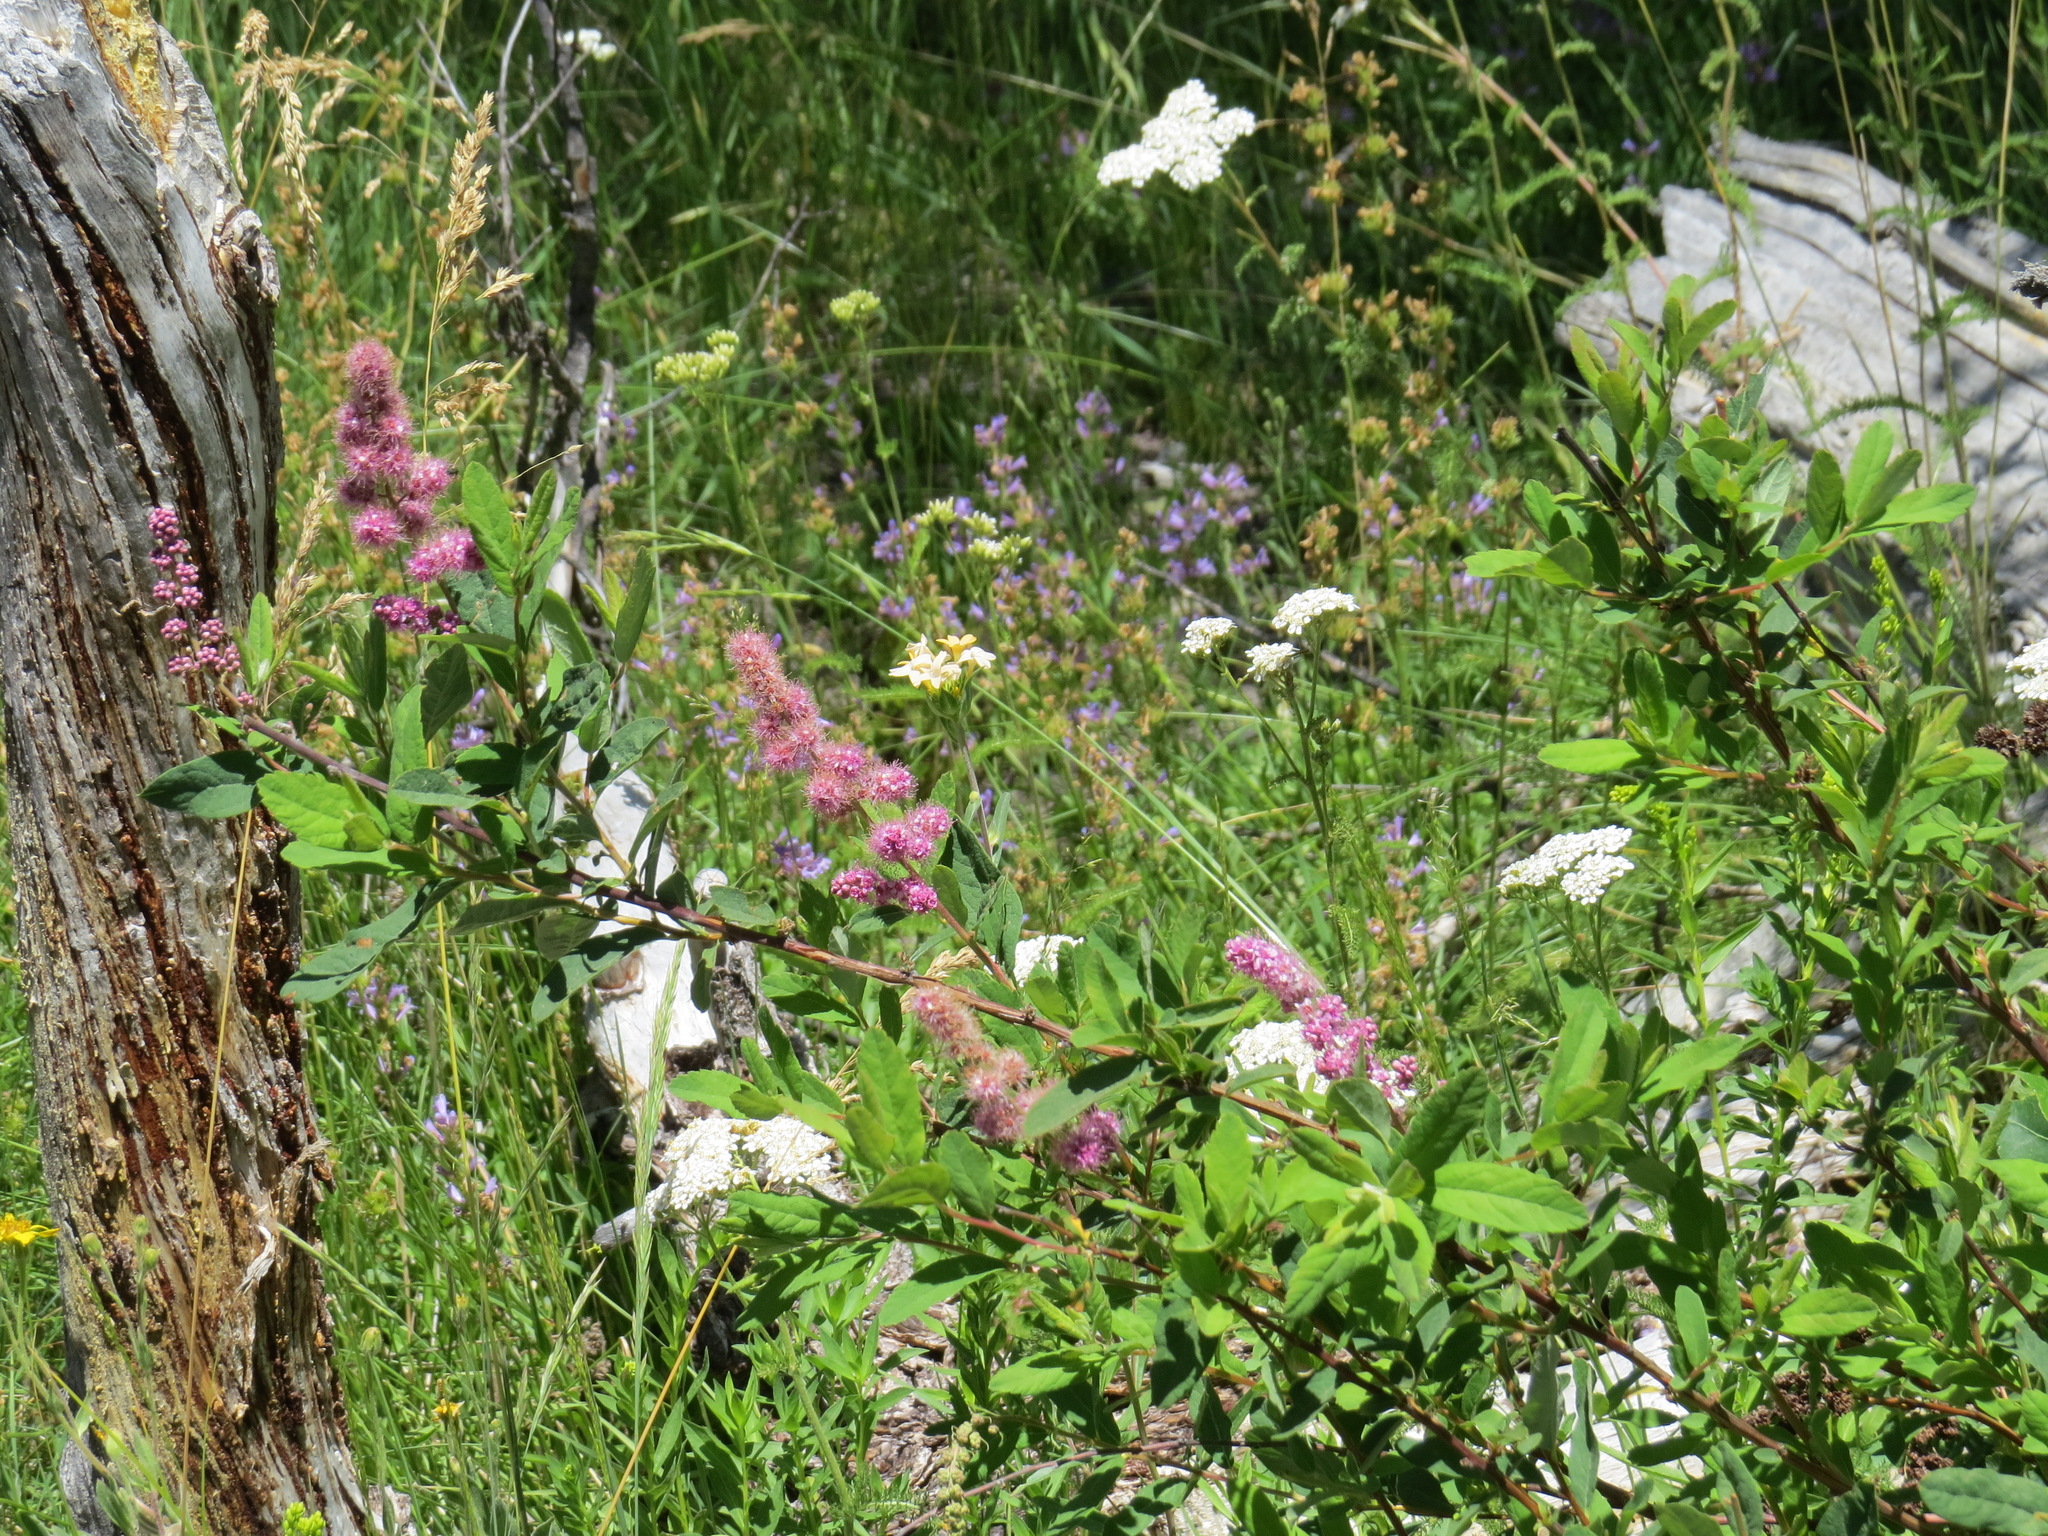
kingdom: Plantae
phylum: Tracheophyta
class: Magnoliopsida
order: Rosales
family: Rosaceae
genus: Spiraea
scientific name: Spiraea douglasii
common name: Steeplebush
